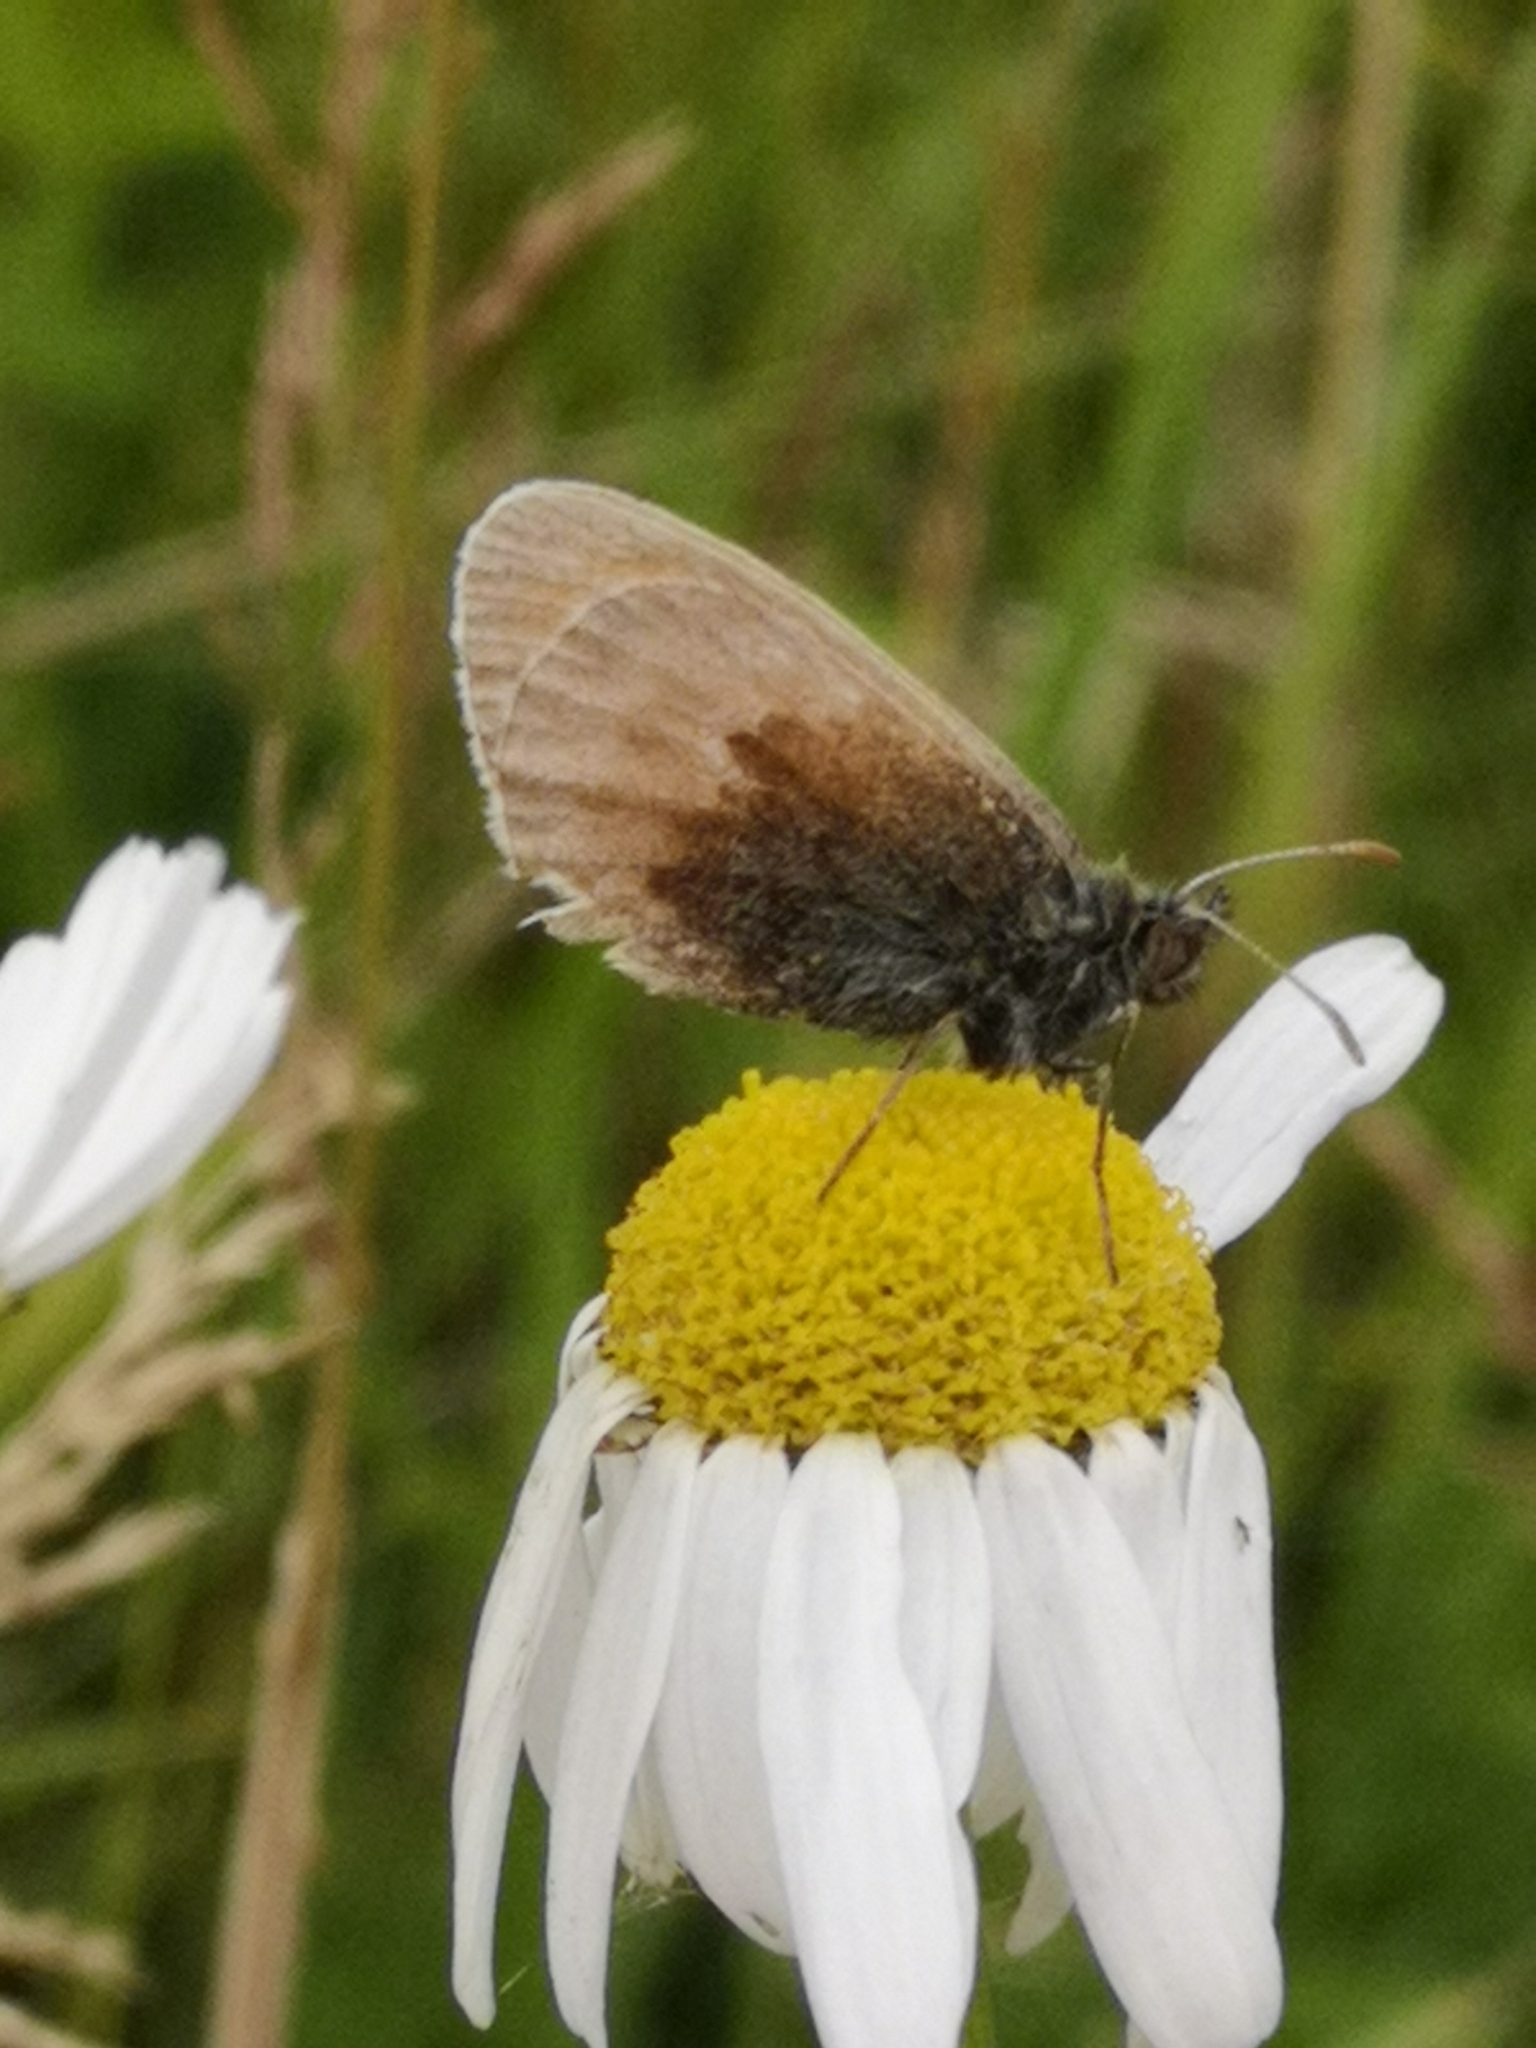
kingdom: Animalia
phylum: Arthropoda
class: Insecta
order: Lepidoptera
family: Nymphalidae
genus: Coenonympha
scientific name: Coenonympha pamphilus
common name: Small heath
